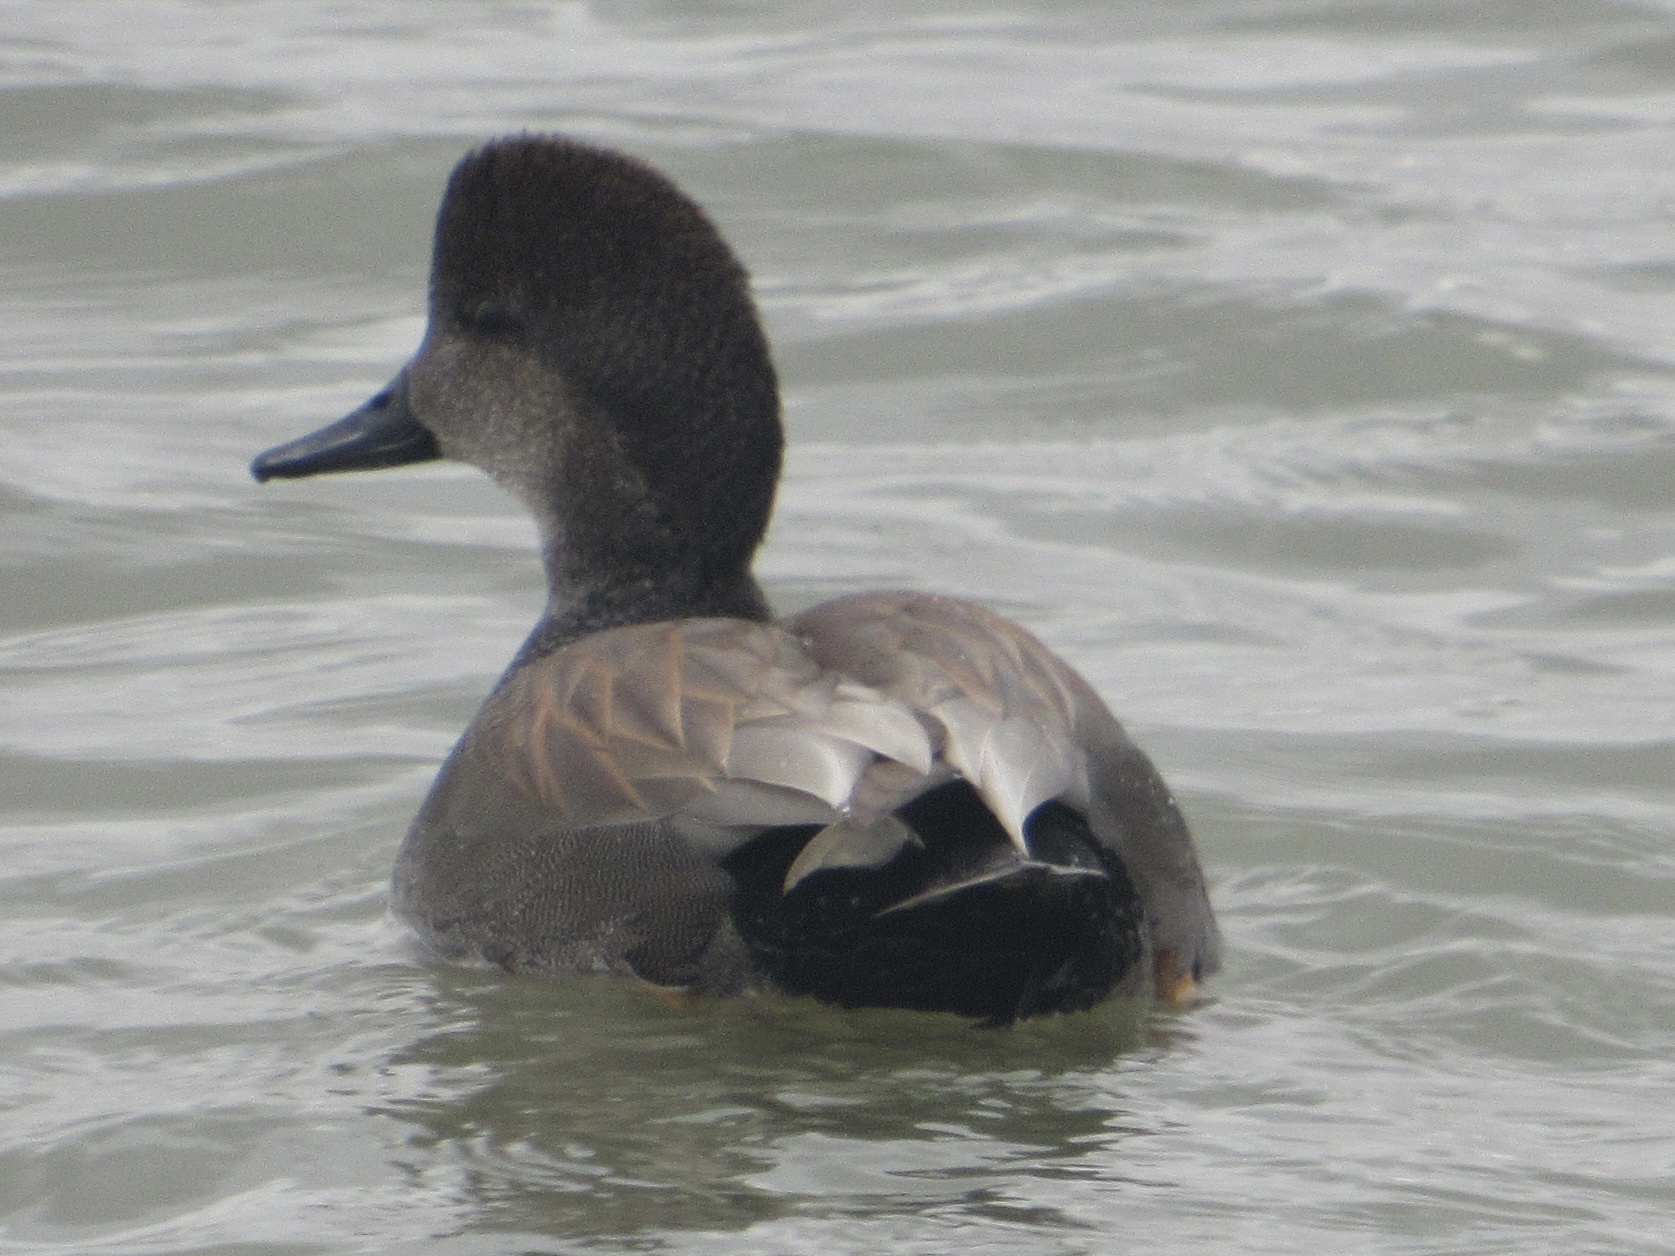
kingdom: Animalia
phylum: Chordata
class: Aves
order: Anseriformes
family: Anatidae
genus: Mareca
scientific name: Mareca strepera
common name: Gadwall
